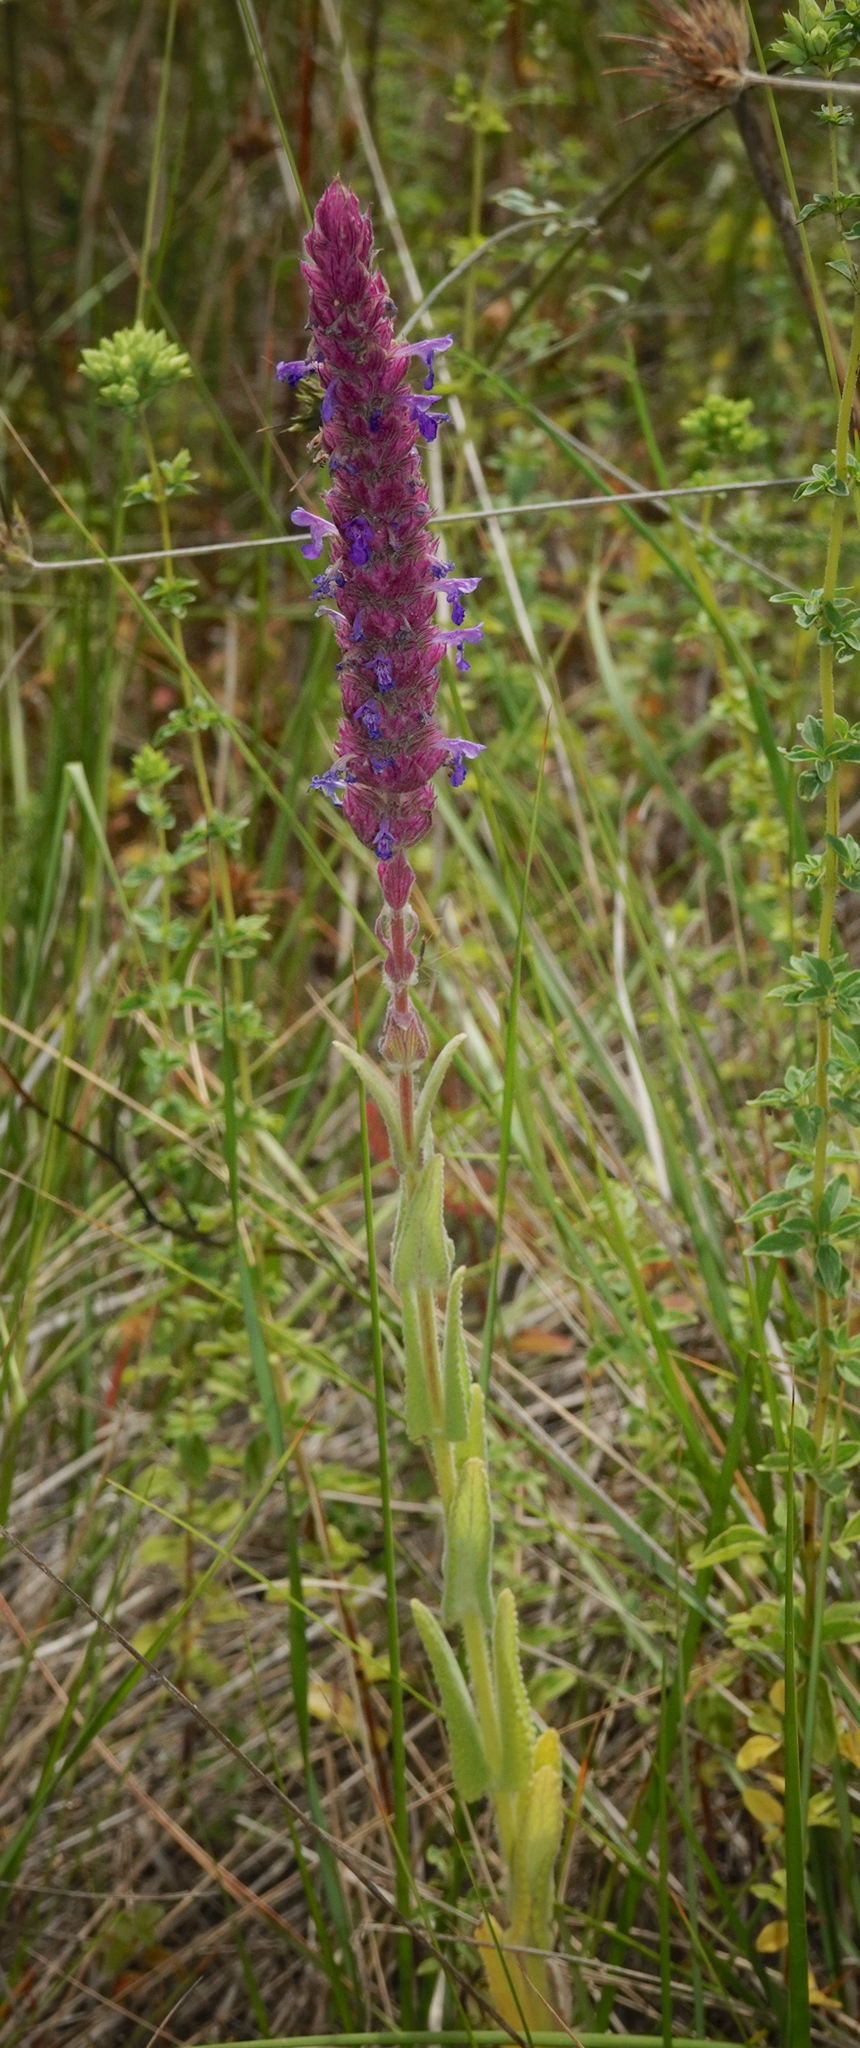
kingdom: Plantae
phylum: Tracheophyta
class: Magnoliopsida
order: Lamiales
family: Lamiaceae
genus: Nepeta
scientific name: Nepeta tuberosa
